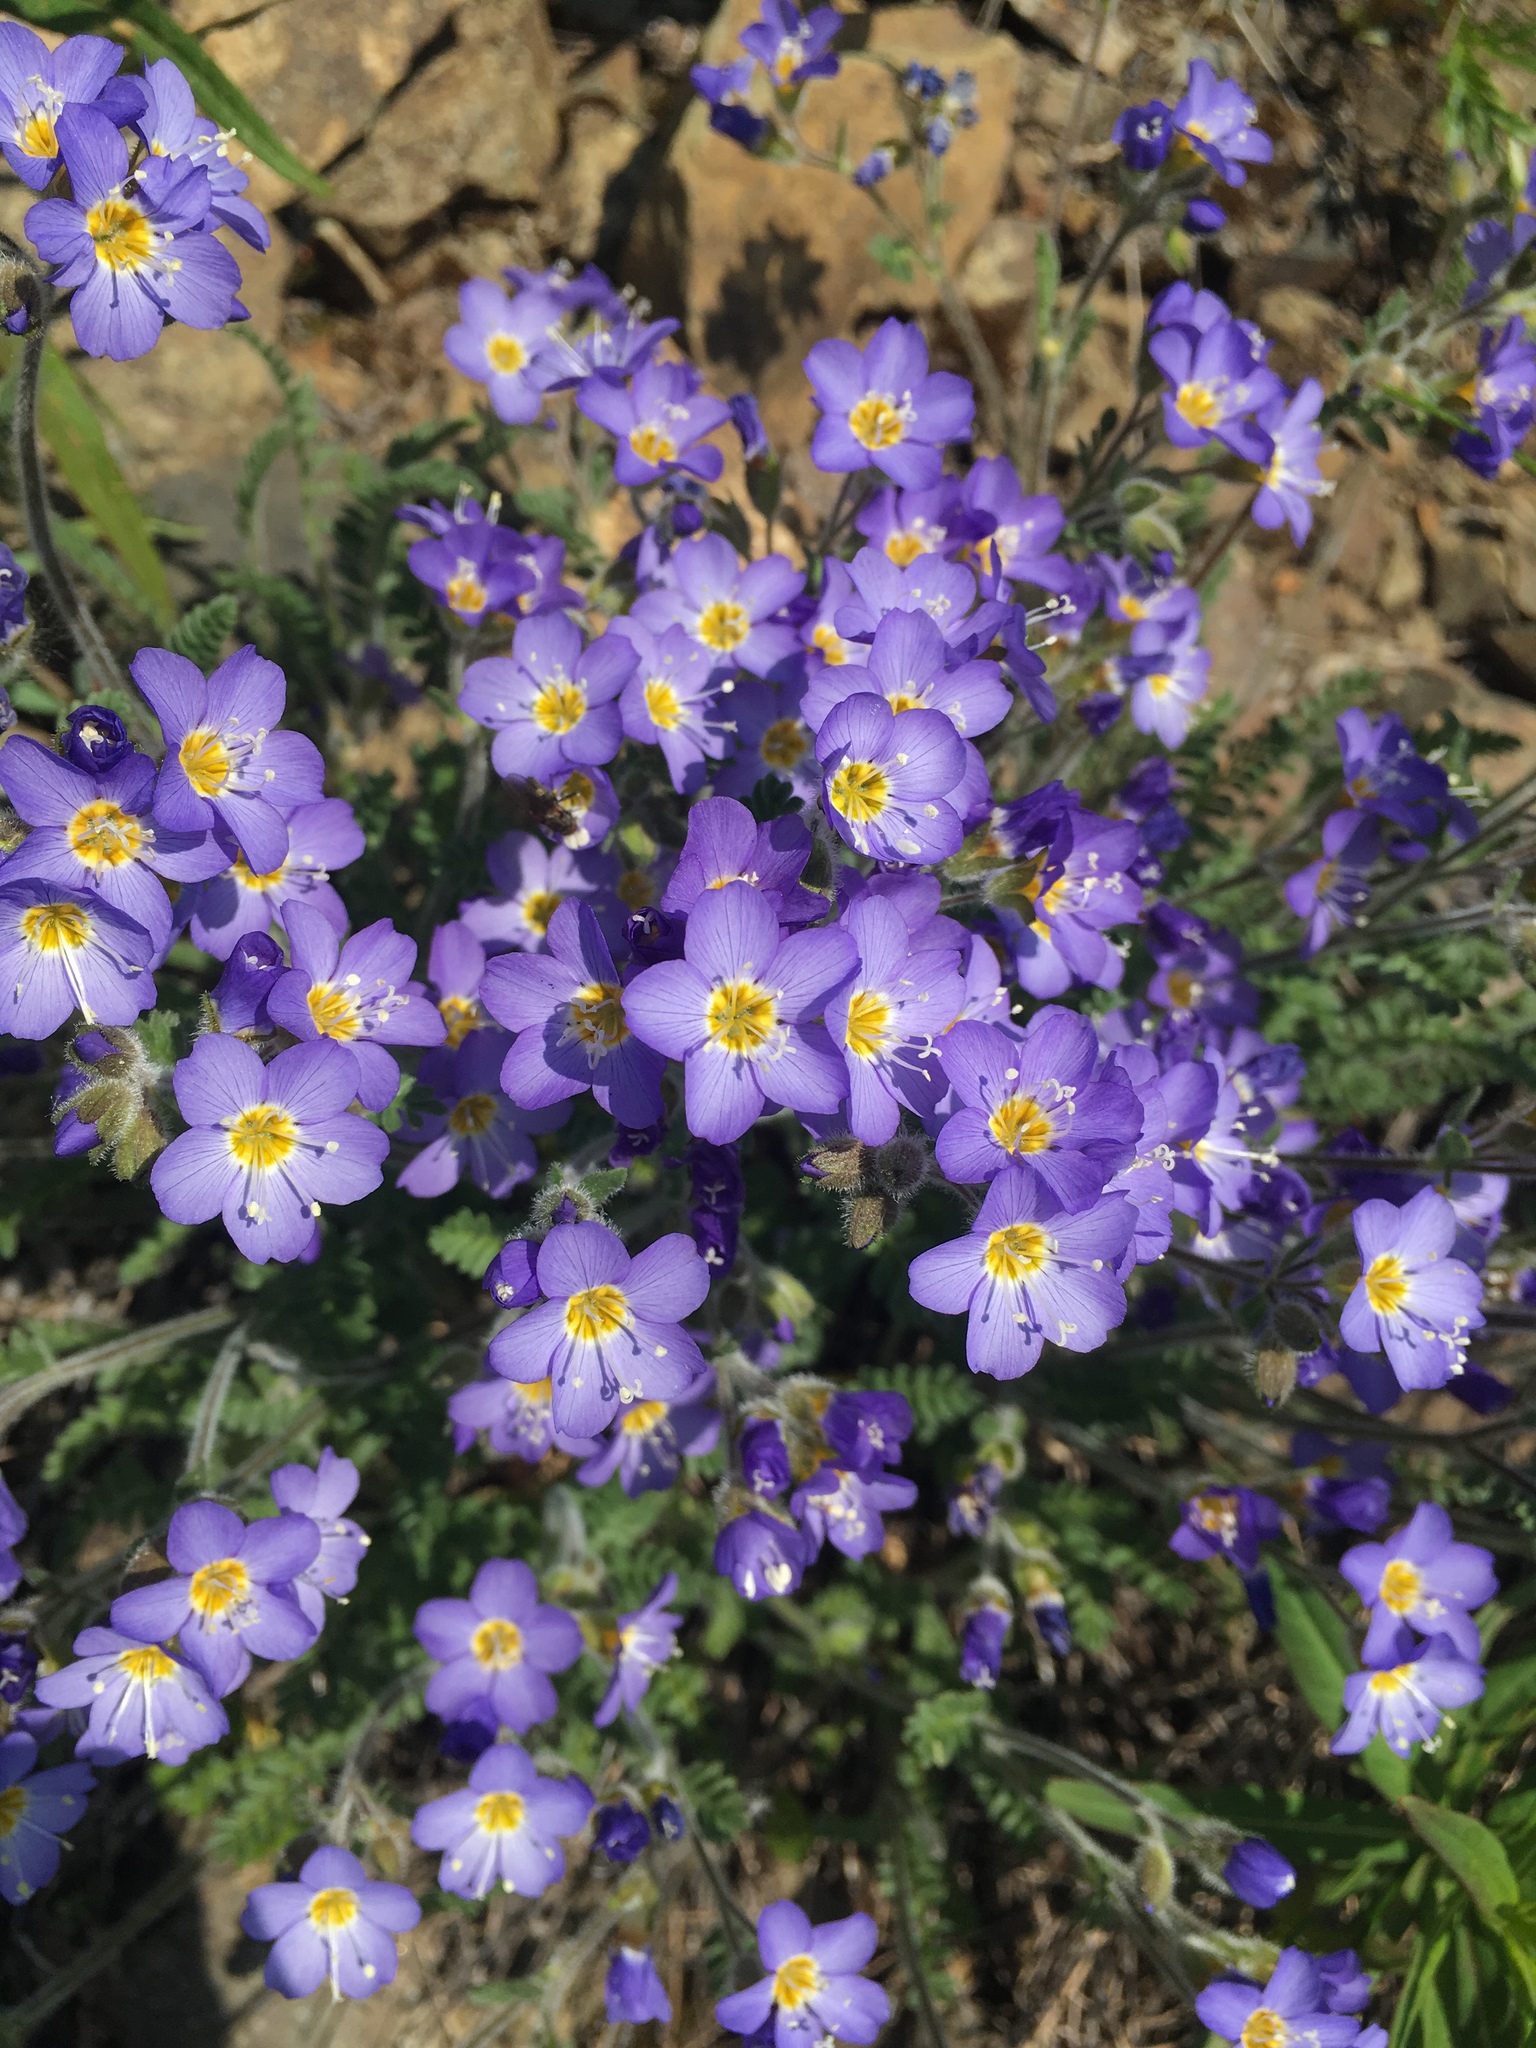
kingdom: Plantae
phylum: Tracheophyta
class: Magnoliopsida
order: Ericales
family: Polemoniaceae
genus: Polemonium
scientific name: Polemonium pulcherrimum
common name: Short jacob's-ladder
